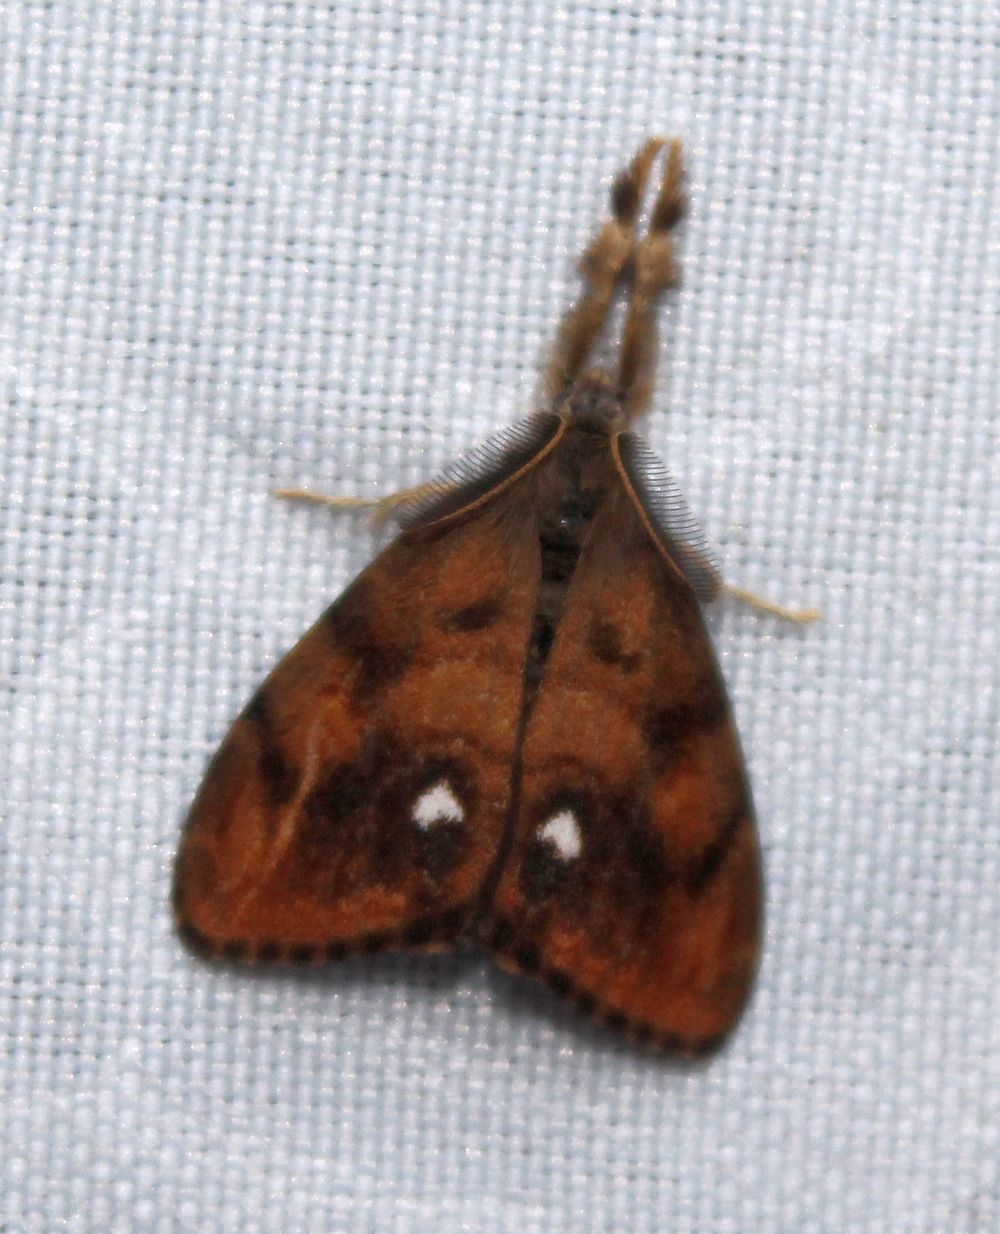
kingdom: Animalia
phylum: Arthropoda
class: Insecta
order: Lepidoptera
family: Erebidae
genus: Orgyia
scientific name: Orgyia antiqua
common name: Vapourer
